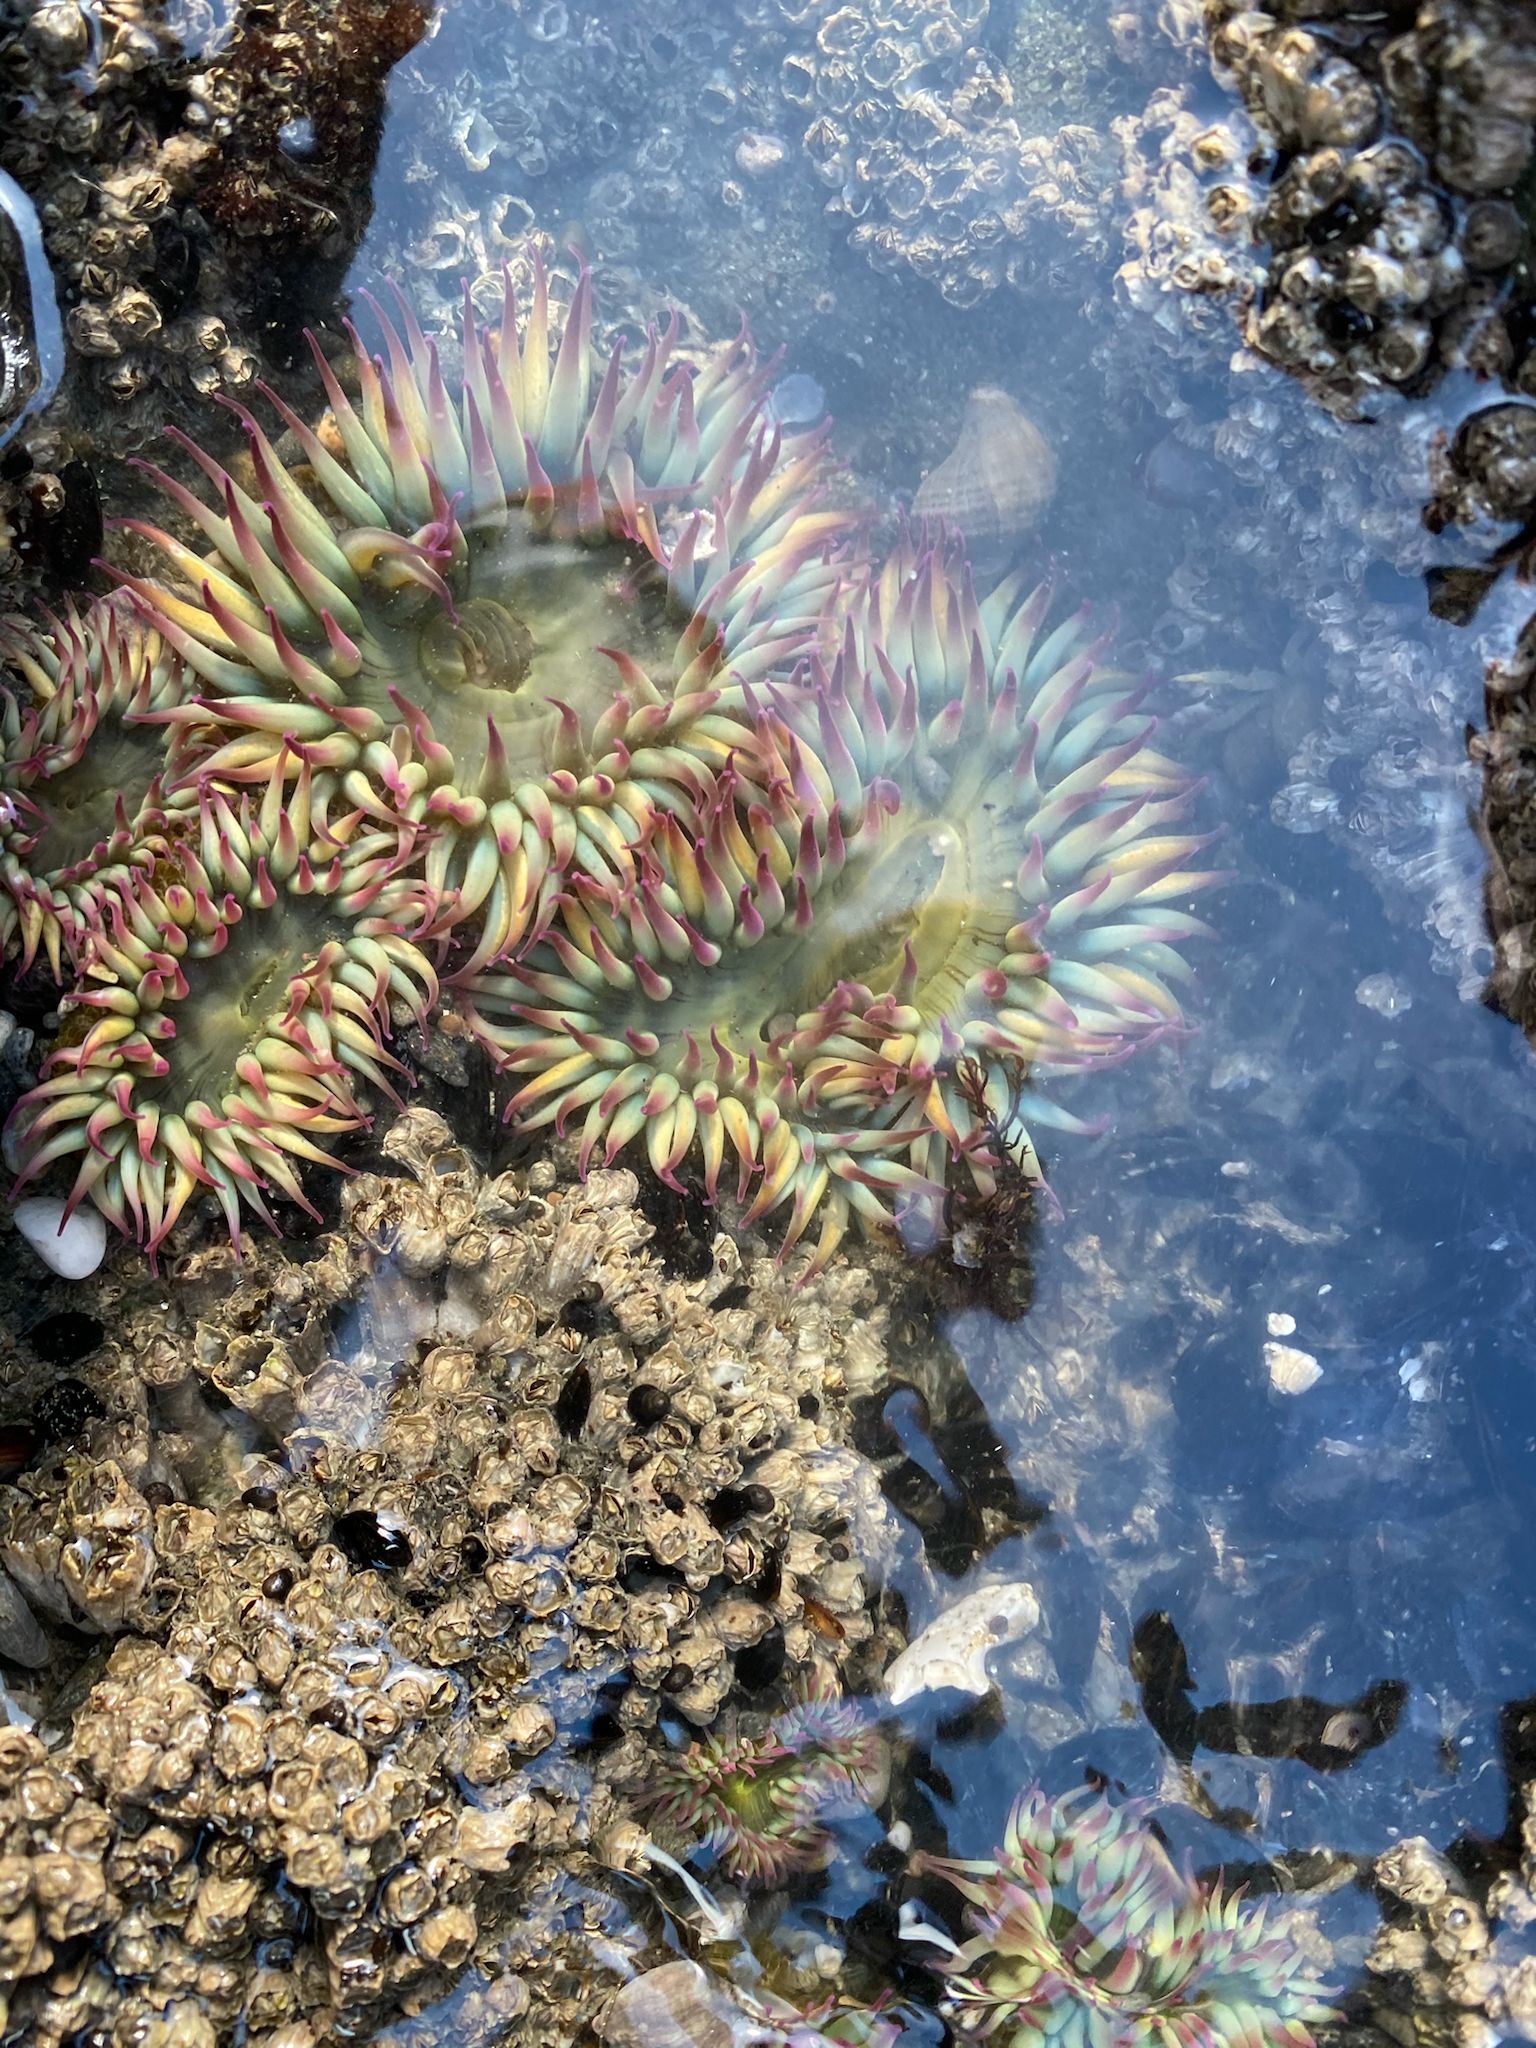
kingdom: Animalia
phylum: Cnidaria
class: Anthozoa
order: Actiniaria
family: Actiniidae
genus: Anthopleura
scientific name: Anthopleura elegantissima
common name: Clonal anemone
